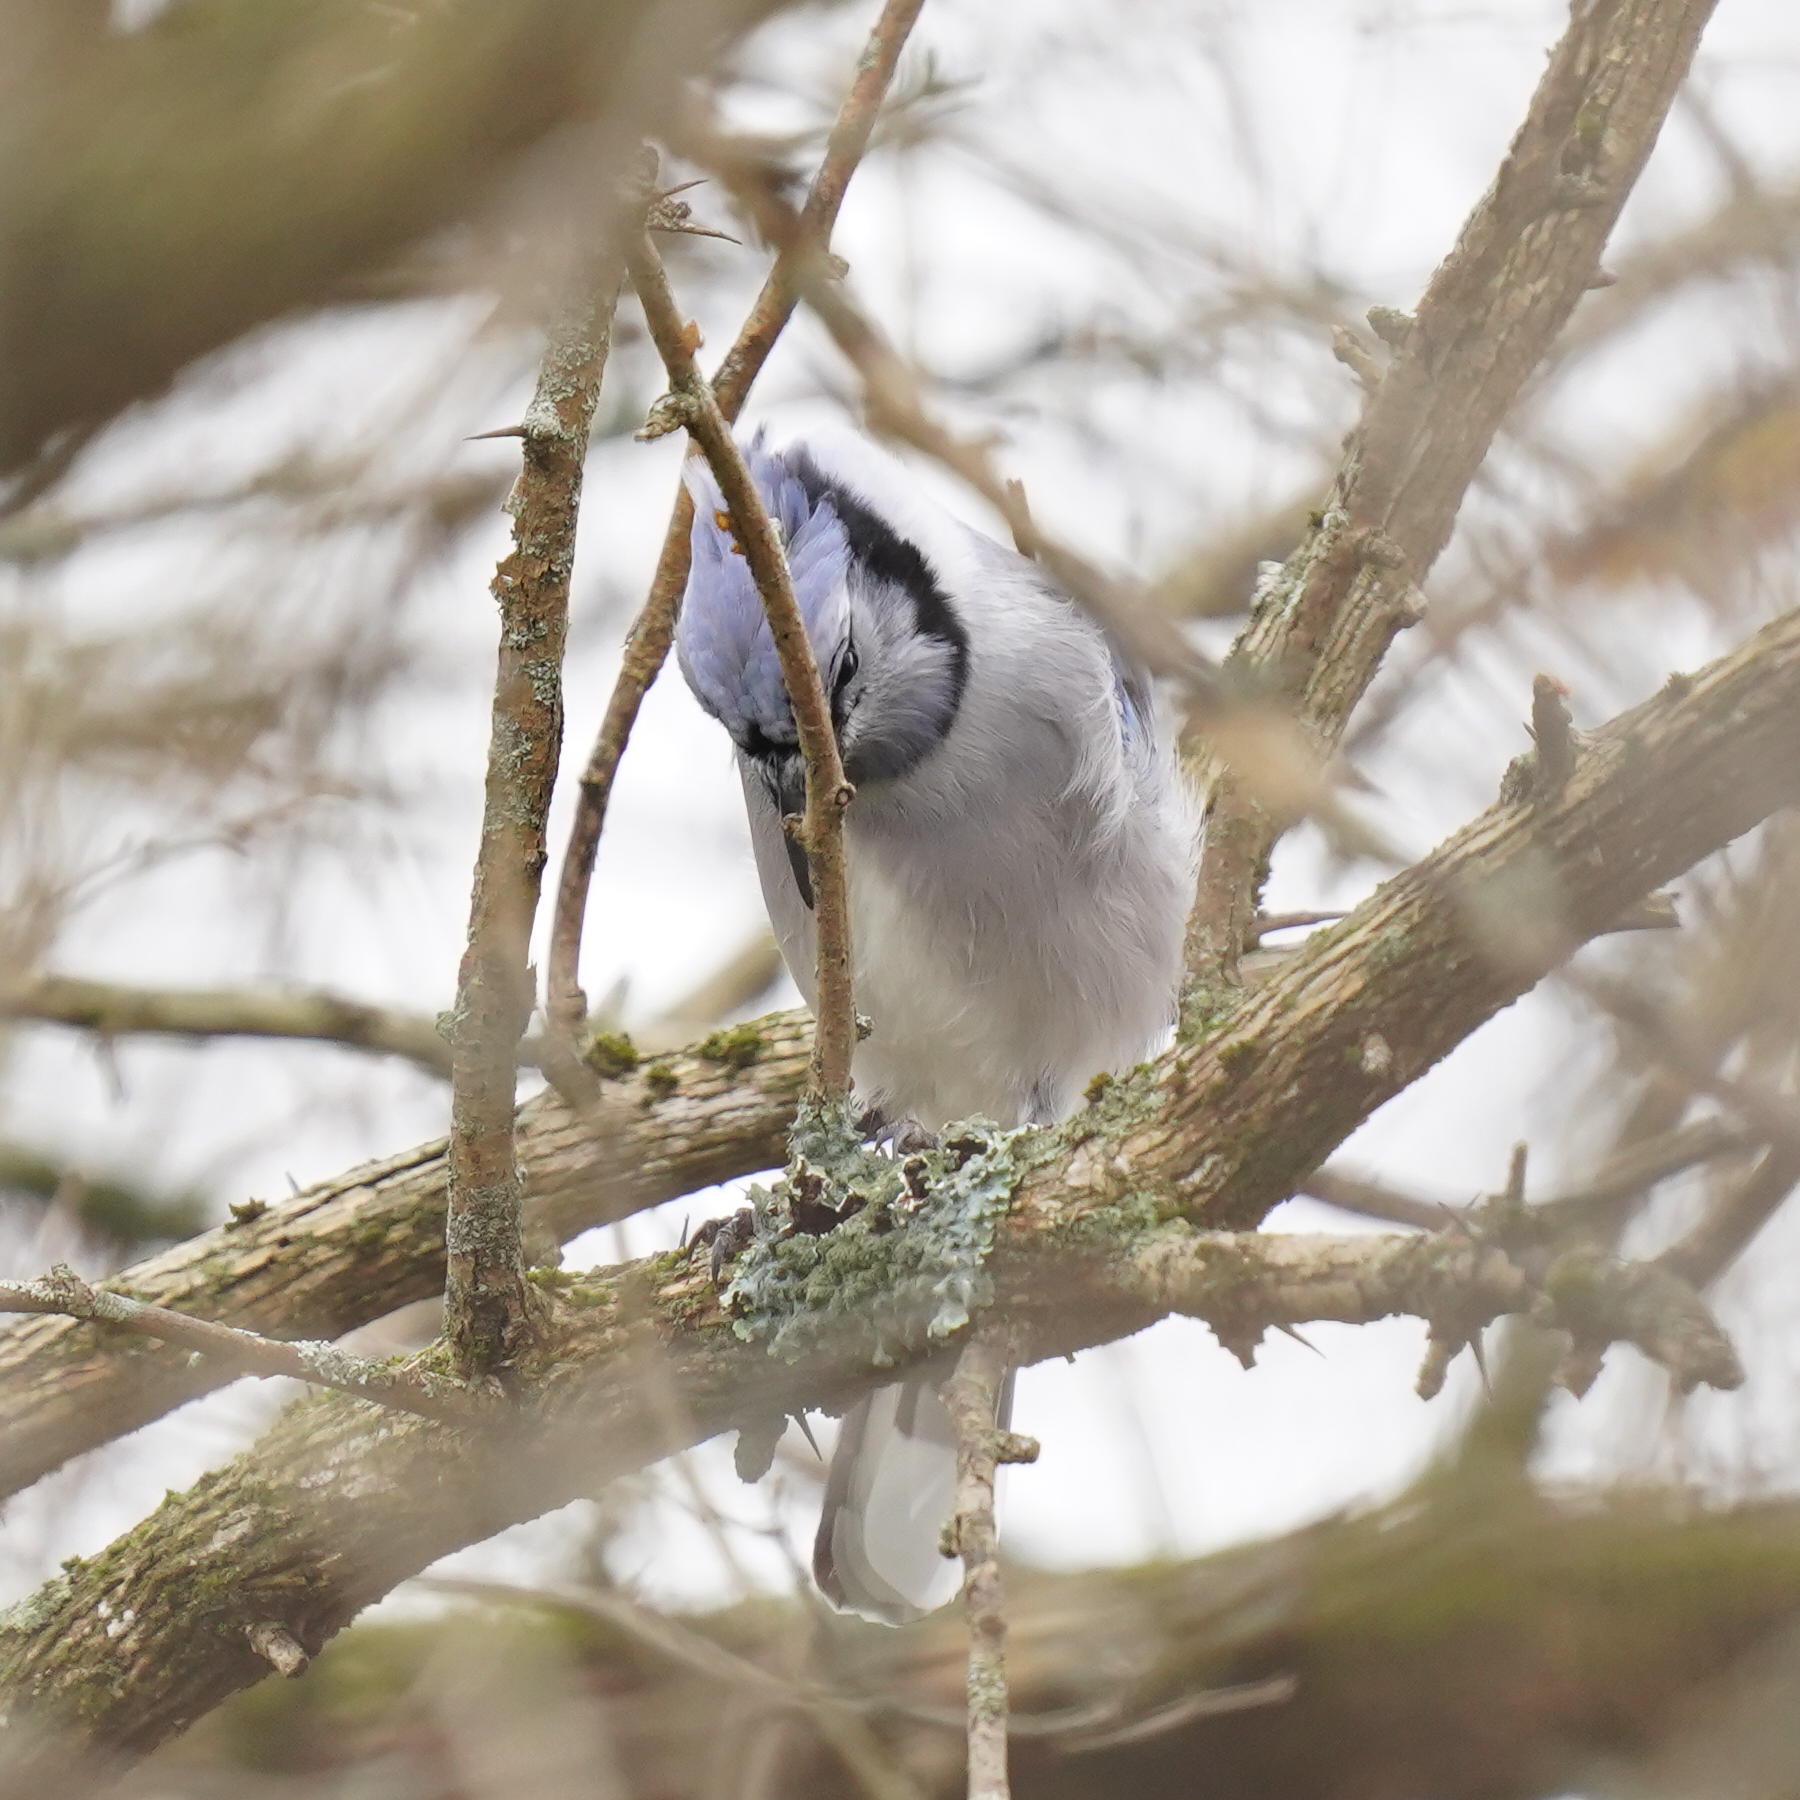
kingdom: Animalia
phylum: Chordata
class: Aves
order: Passeriformes
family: Corvidae
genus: Cyanocitta
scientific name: Cyanocitta cristata
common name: Blue jay
